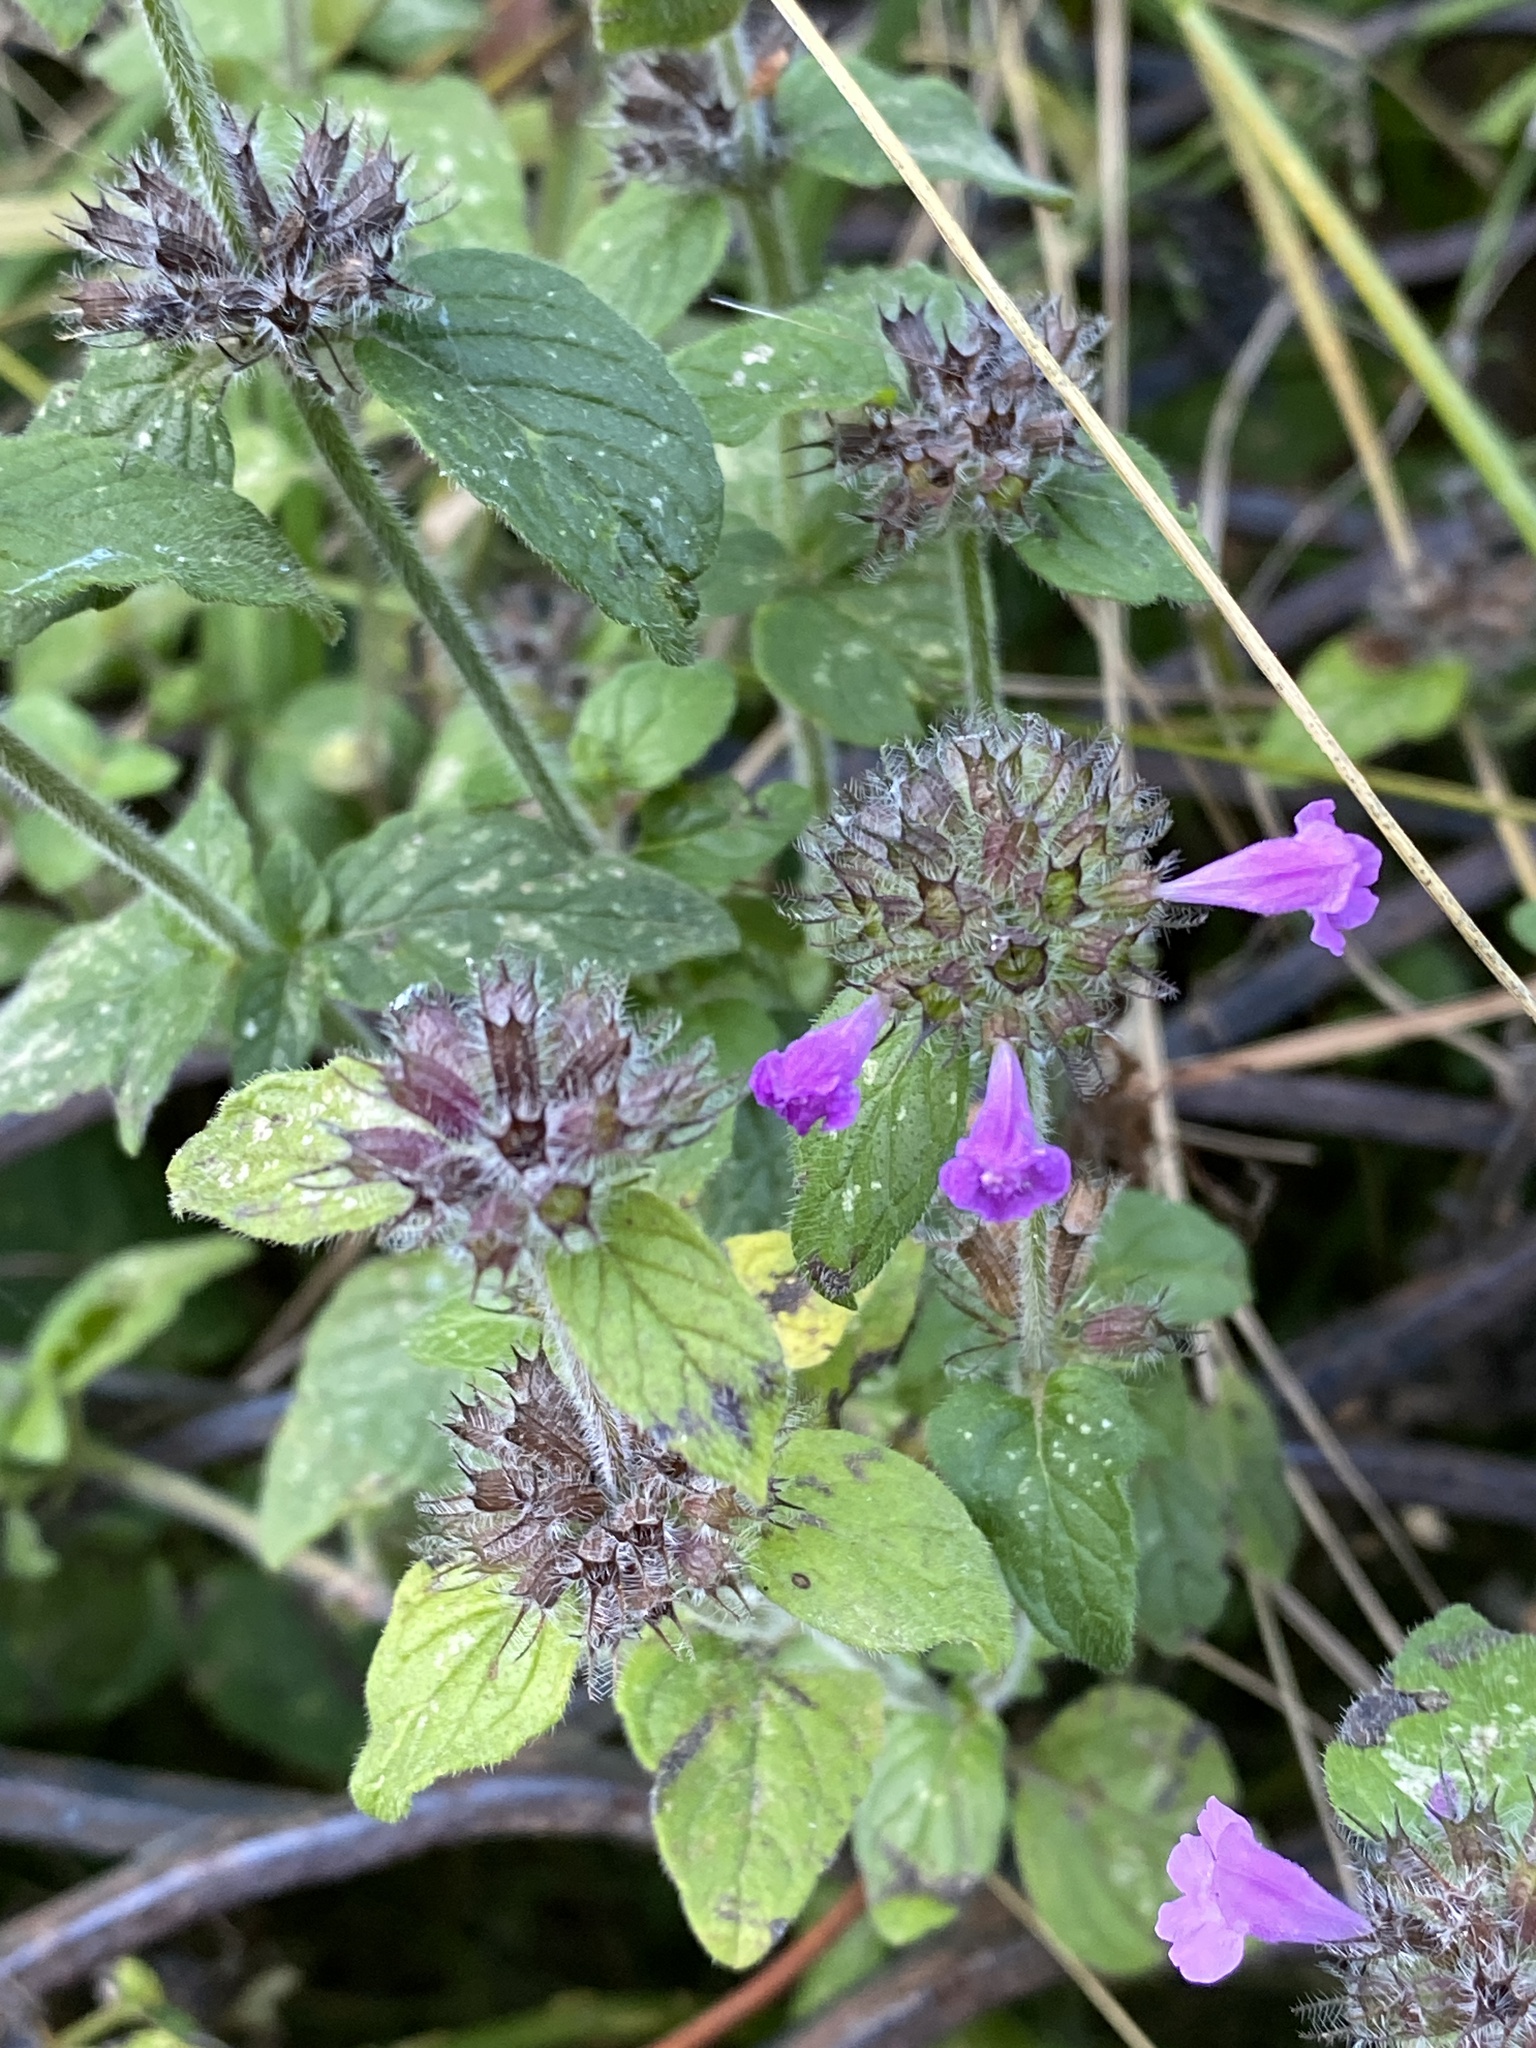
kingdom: Plantae
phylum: Tracheophyta
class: Magnoliopsida
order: Lamiales
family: Lamiaceae
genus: Clinopodium
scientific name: Clinopodium vulgare
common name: Wild basil
